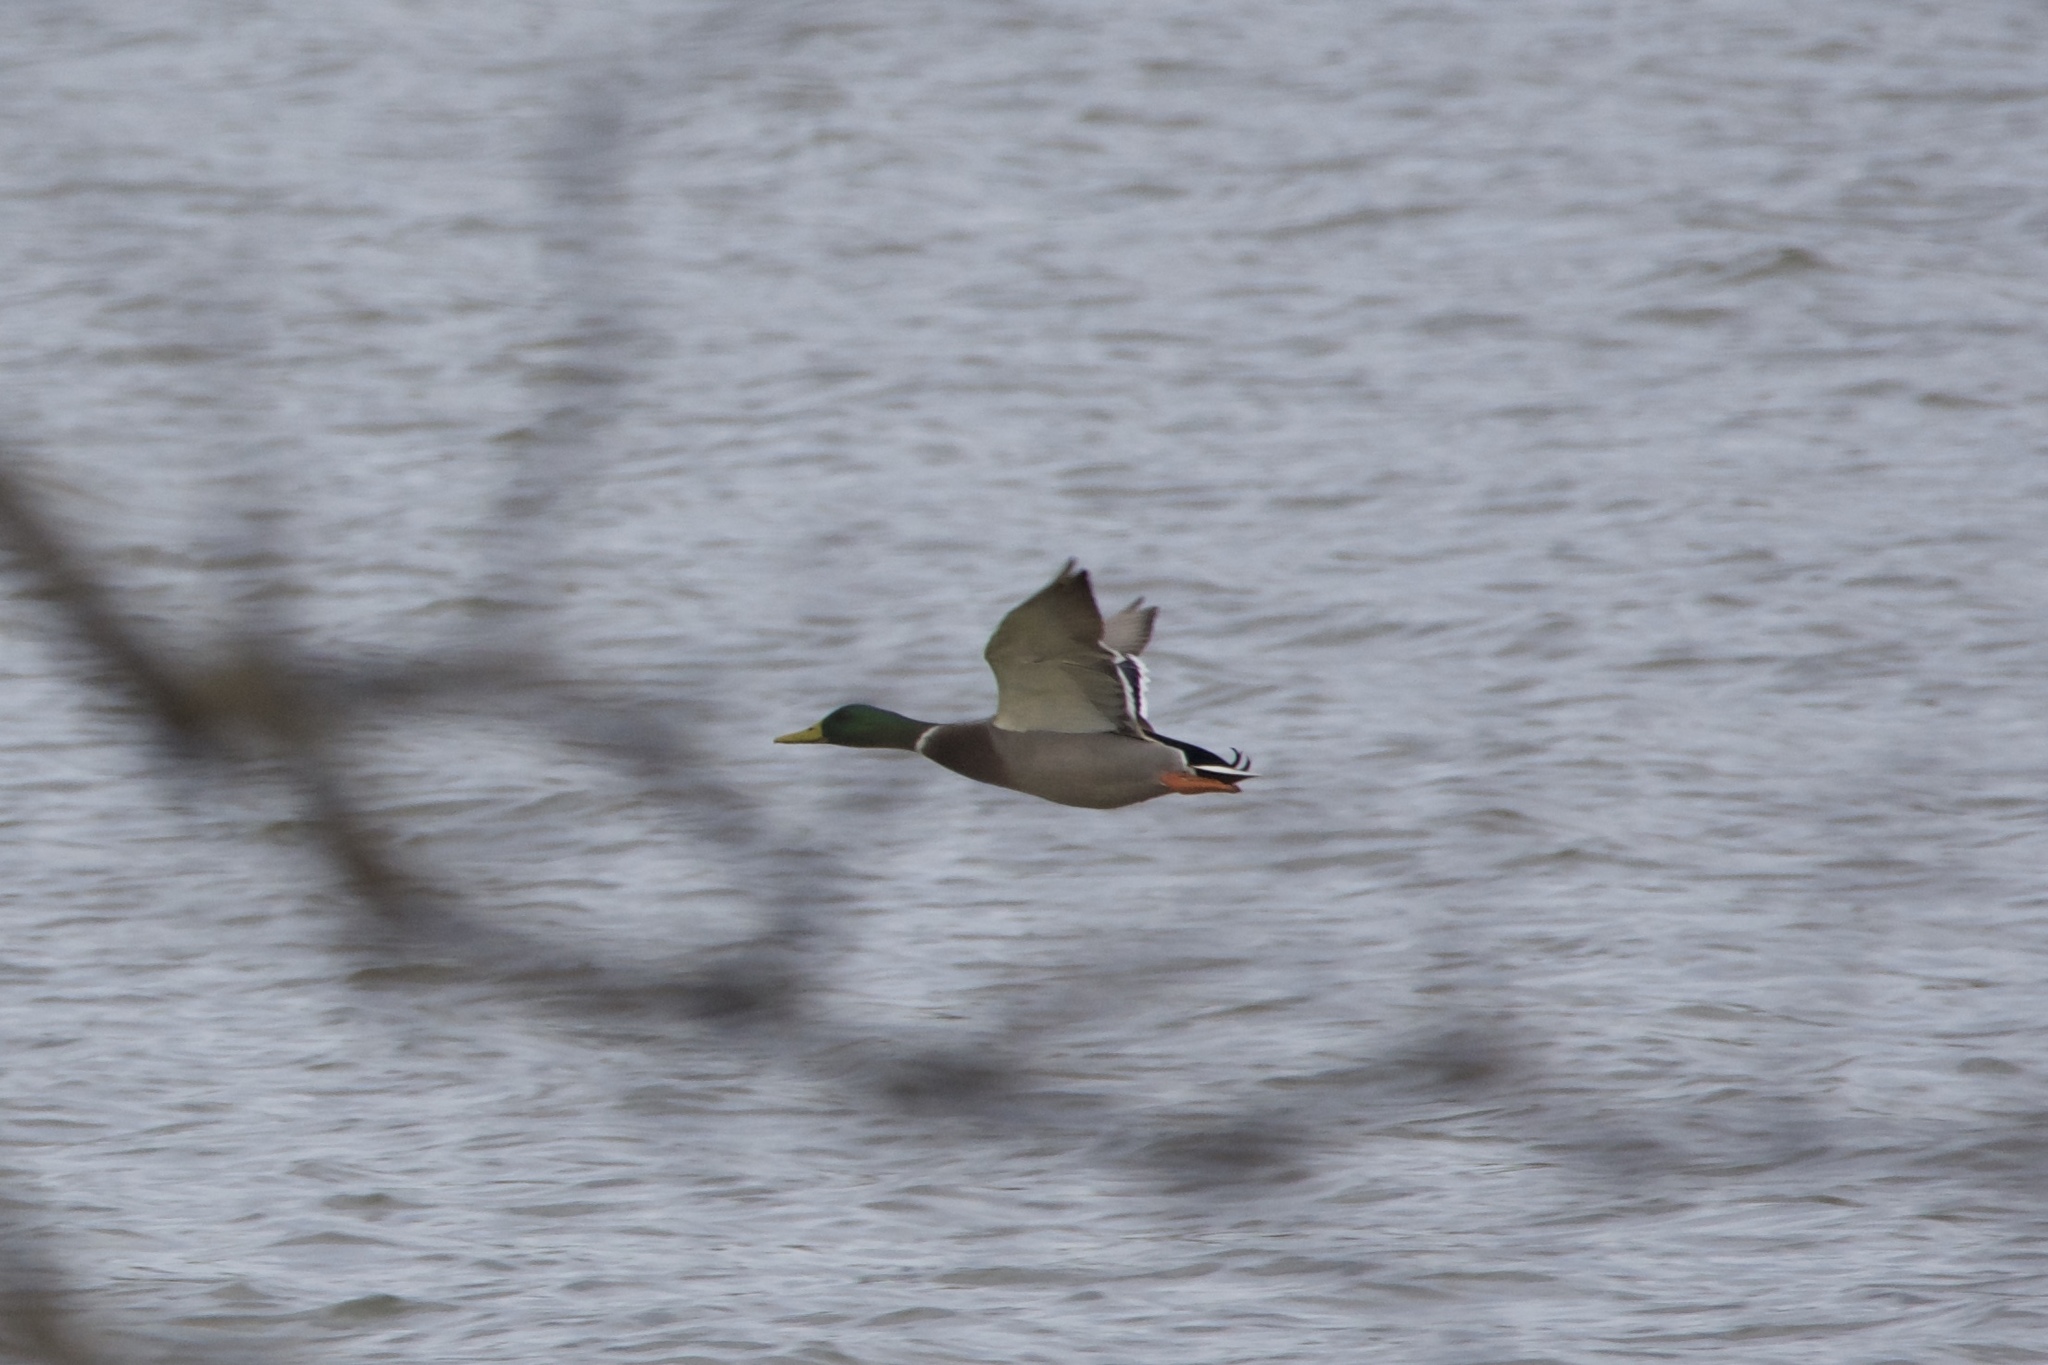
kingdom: Animalia
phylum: Chordata
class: Aves
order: Anseriformes
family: Anatidae
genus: Anas
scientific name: Anas platyrhynchos
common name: Mallard
